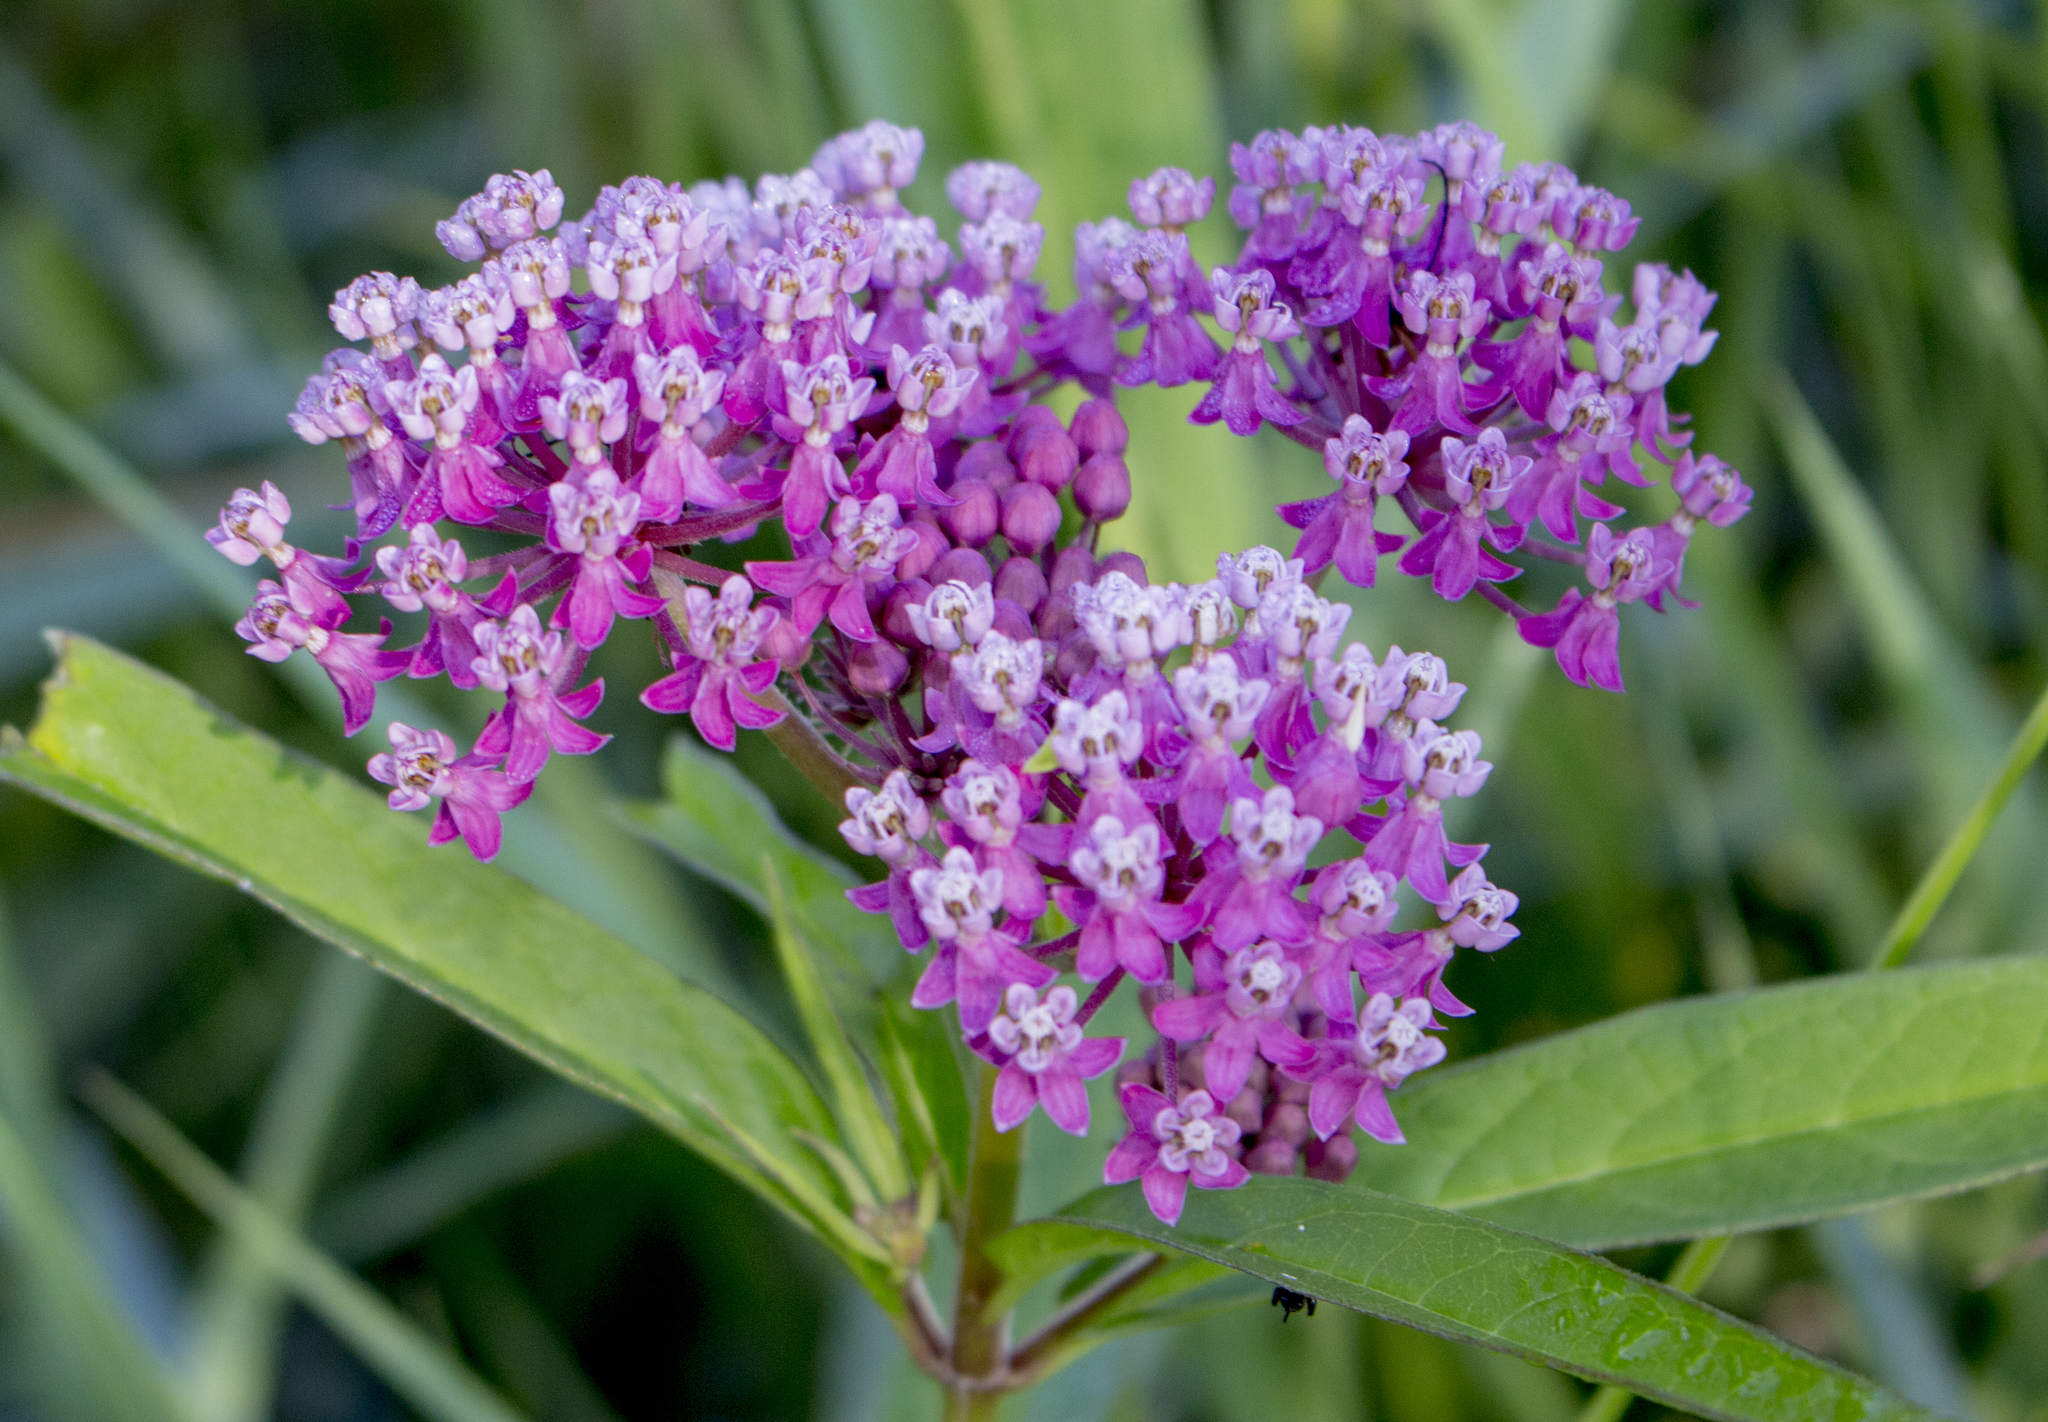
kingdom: Plantae
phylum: Tracheophyta
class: Magnoliopsida
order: Gentianales
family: Apocynaceae
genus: Asclepias
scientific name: Asclepias incarnata
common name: Swamp milkweed
